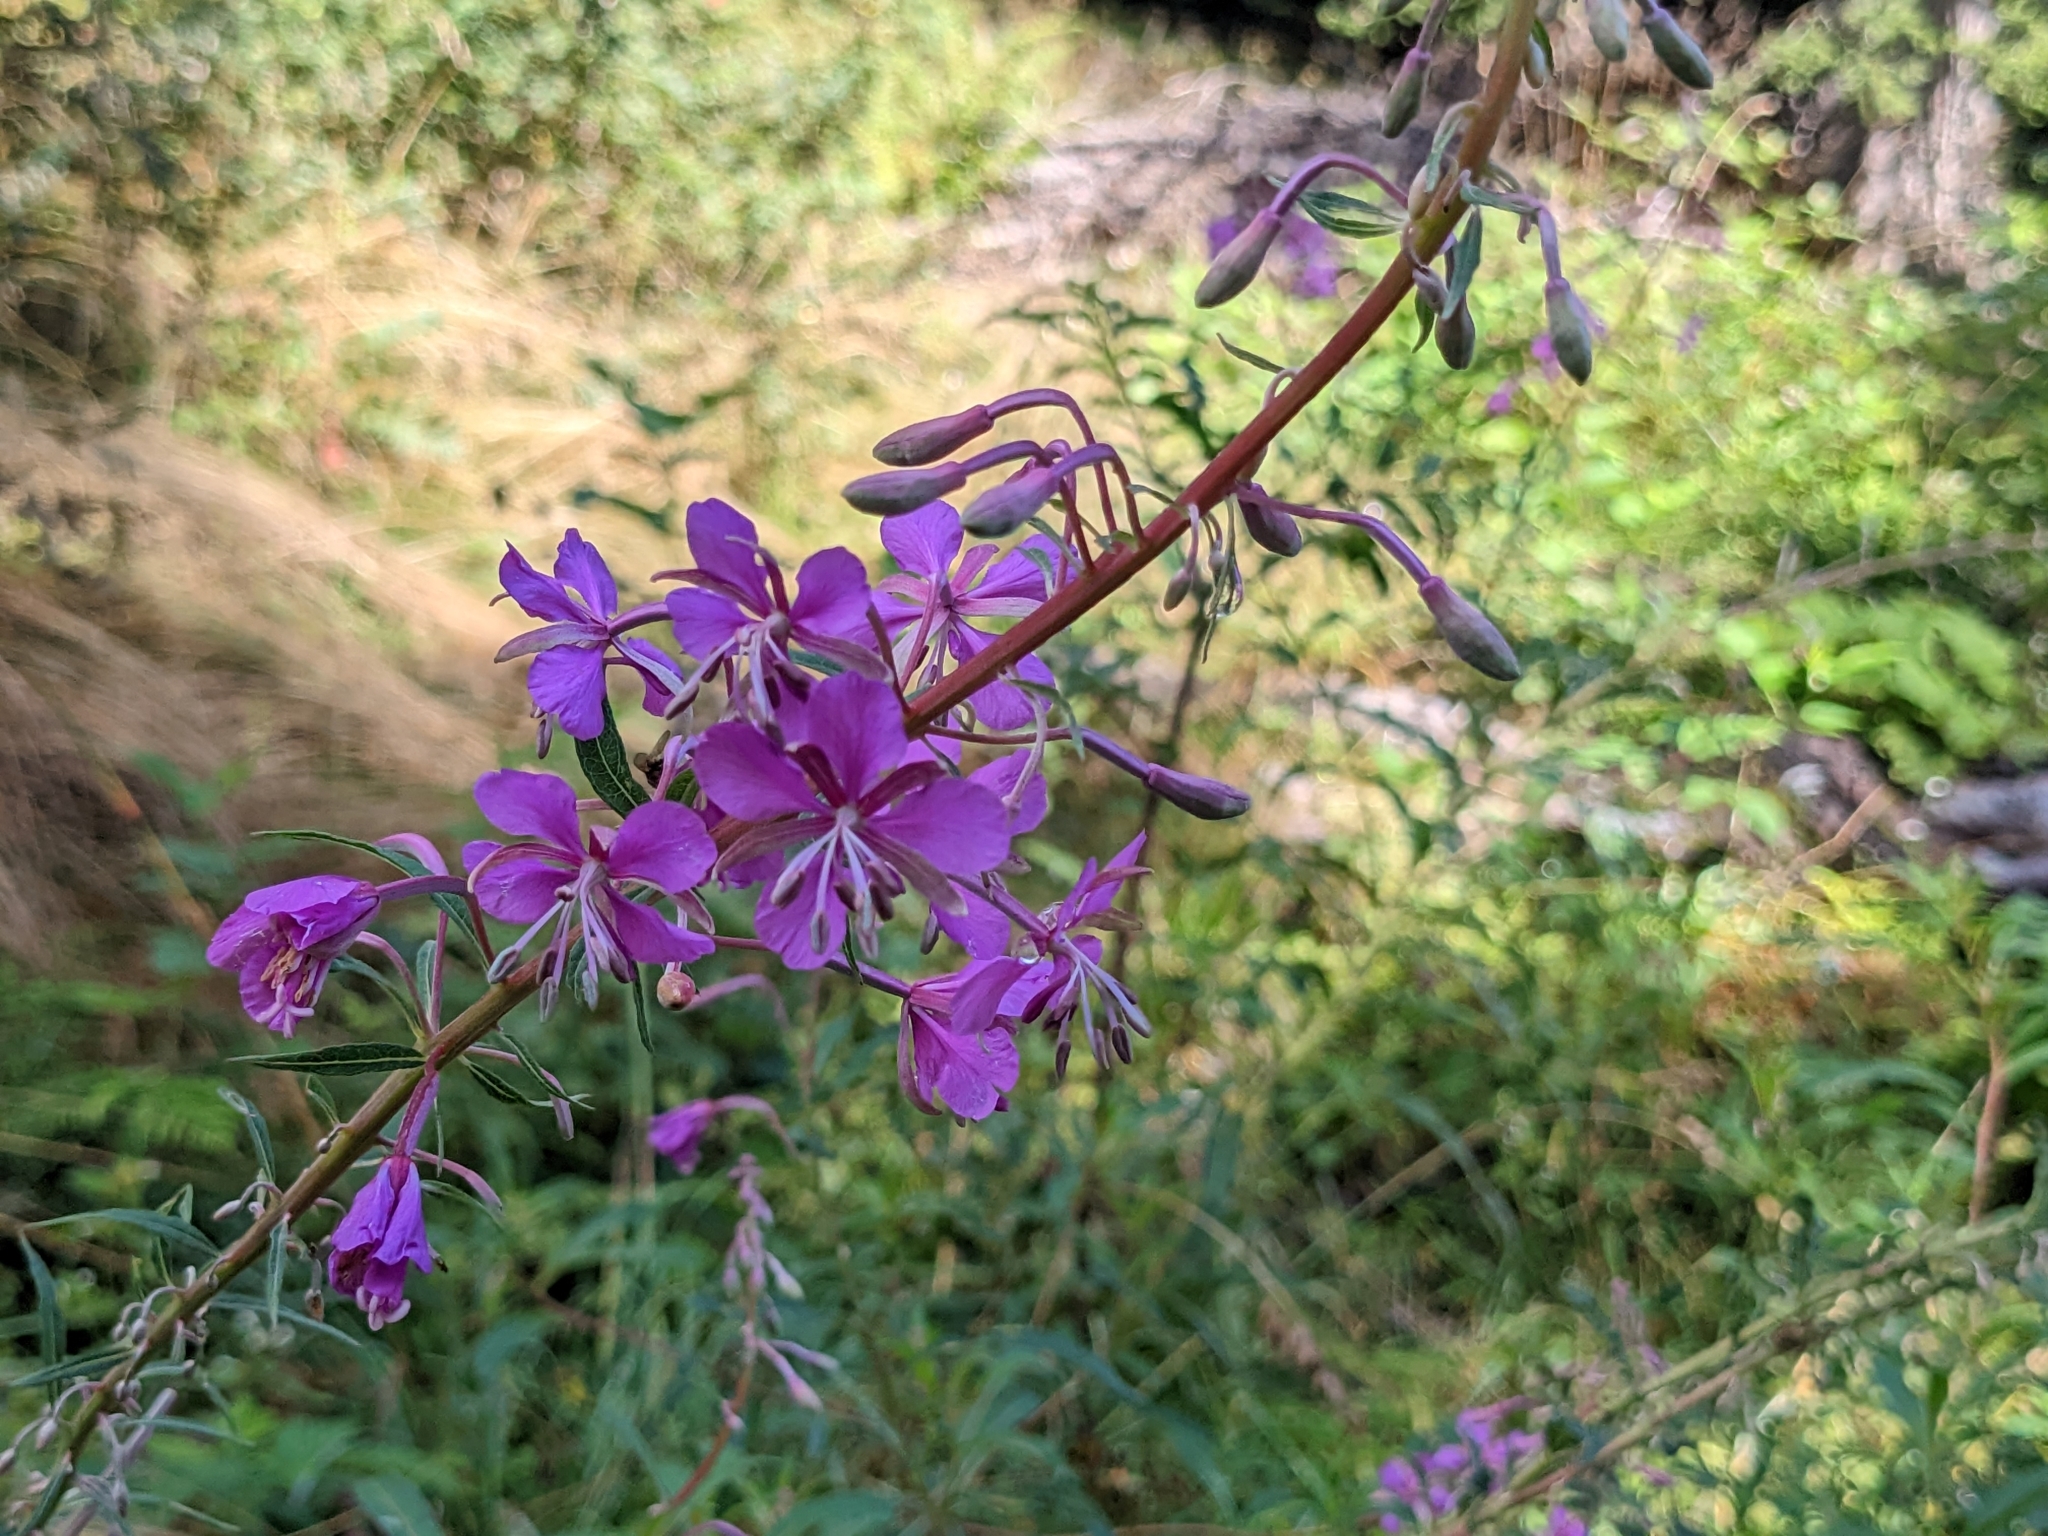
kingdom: Plantae
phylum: Tracheophyta
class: Magnoliopsida
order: Myrtales
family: Onagraceae
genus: Chamaenerion
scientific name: Chamaenerion angustifolium
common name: Fireweed
